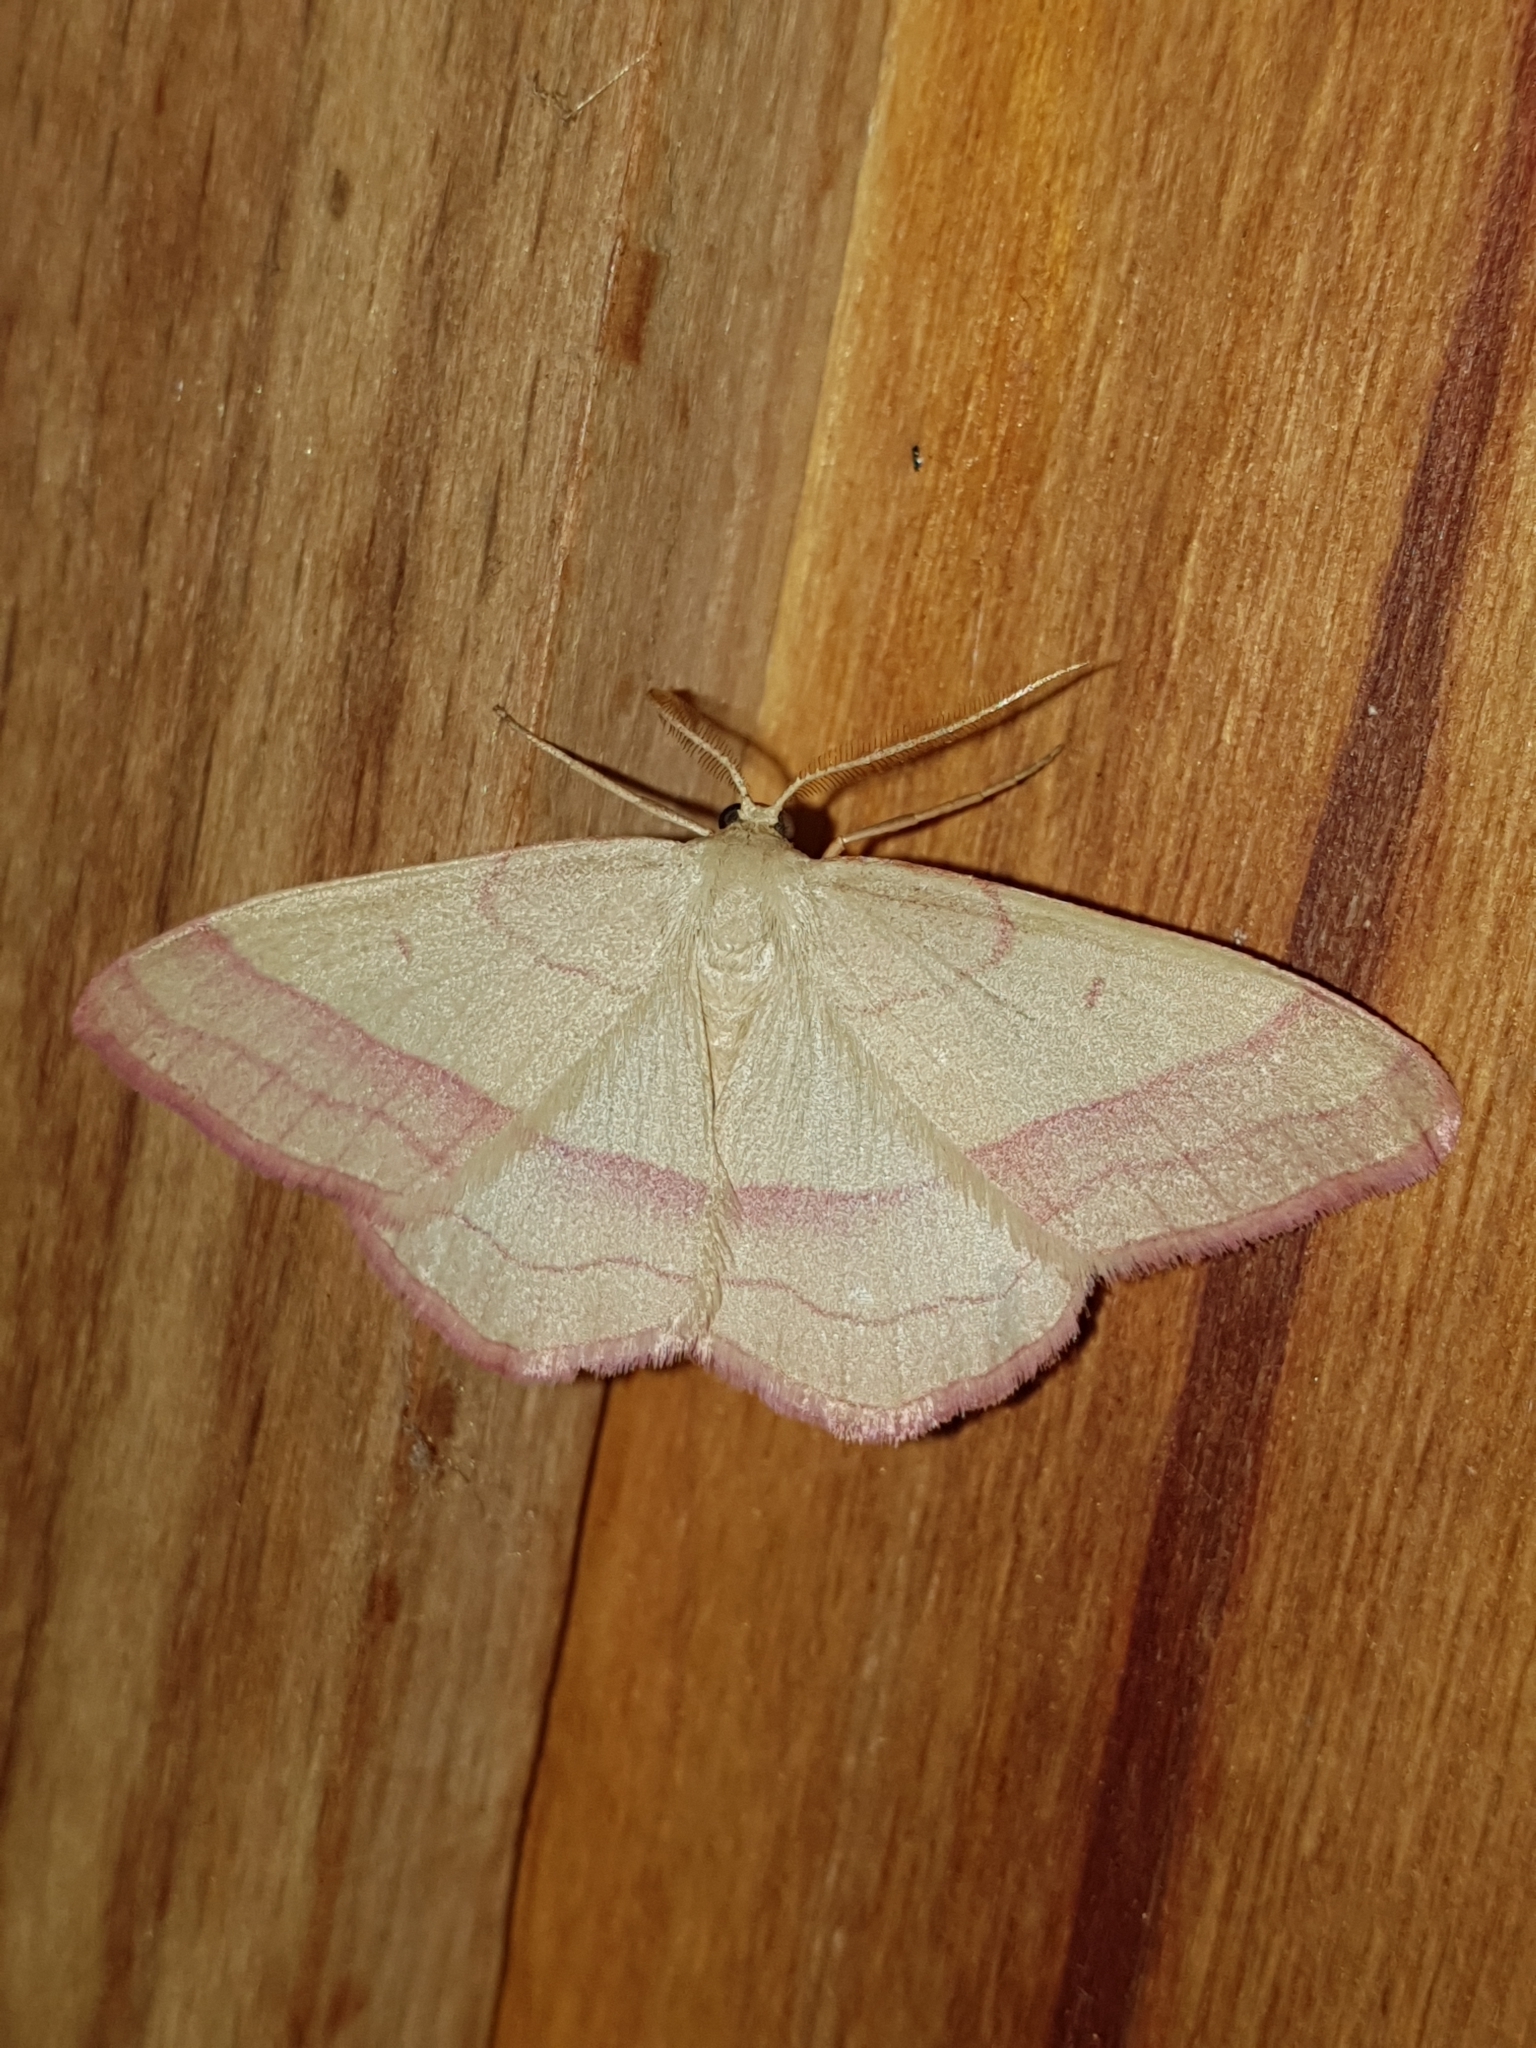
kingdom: Animalia
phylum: Arthropoda
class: Insecta
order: Lepidoptera
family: Geometridae
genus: Rhodostrophia
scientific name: Rhodostrophia vibicaria
